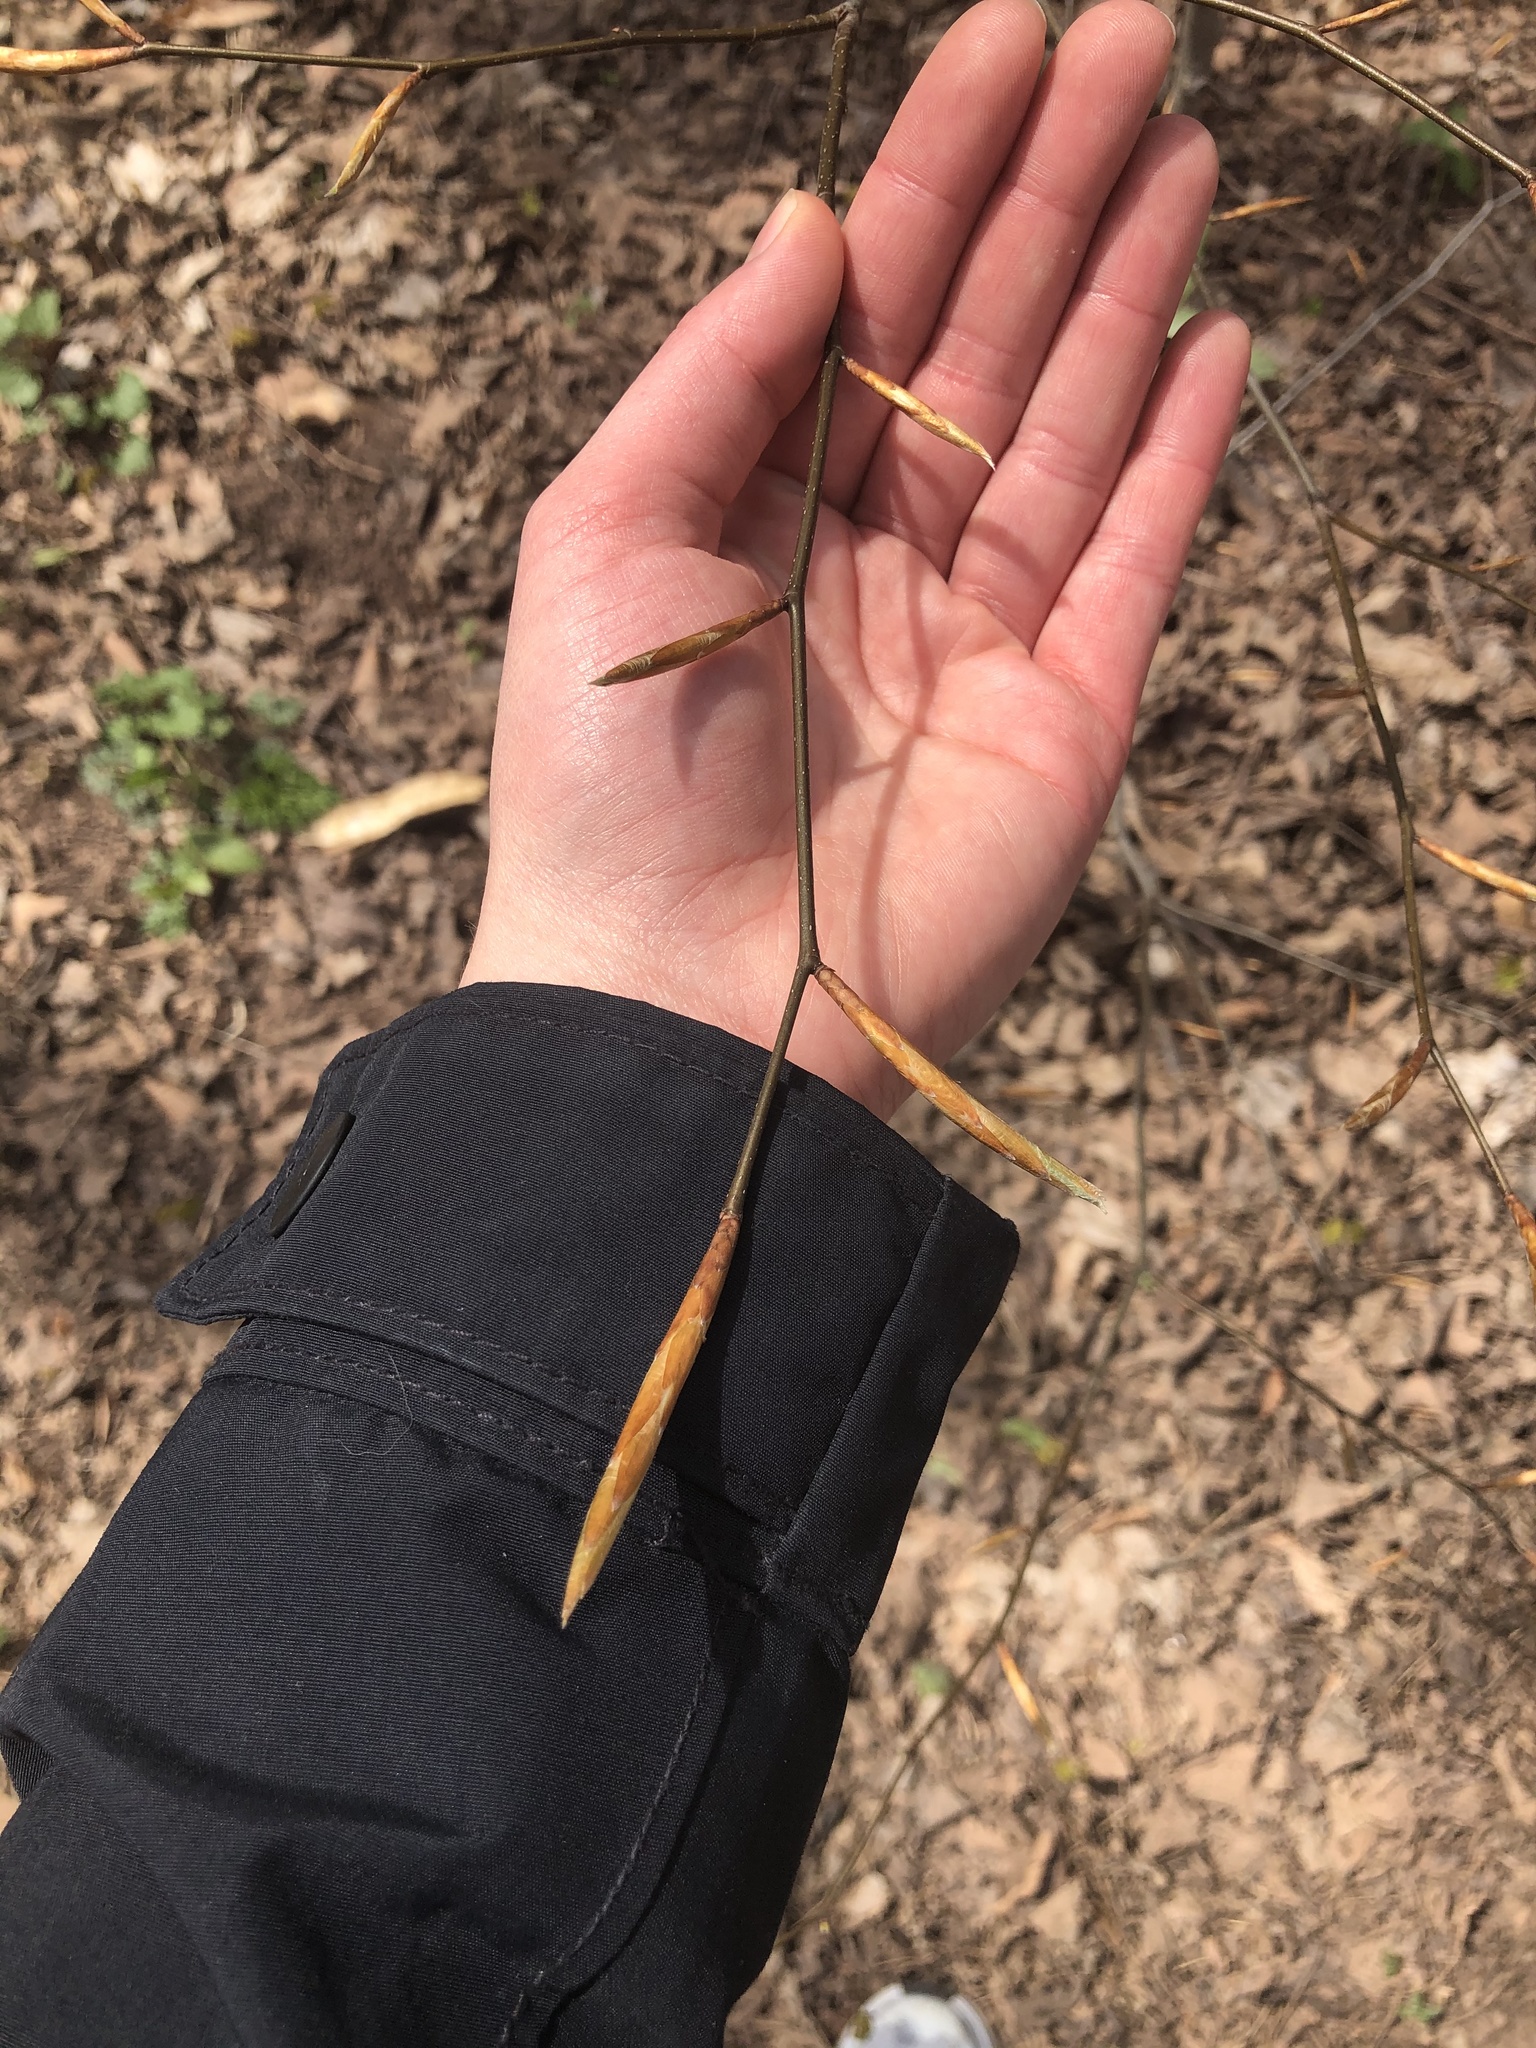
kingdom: Plantae
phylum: Tracheophyta
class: Magnoliopsida
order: Fagales
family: Fagaceae
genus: Fagus
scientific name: Fagus grandifolia
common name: American beech
